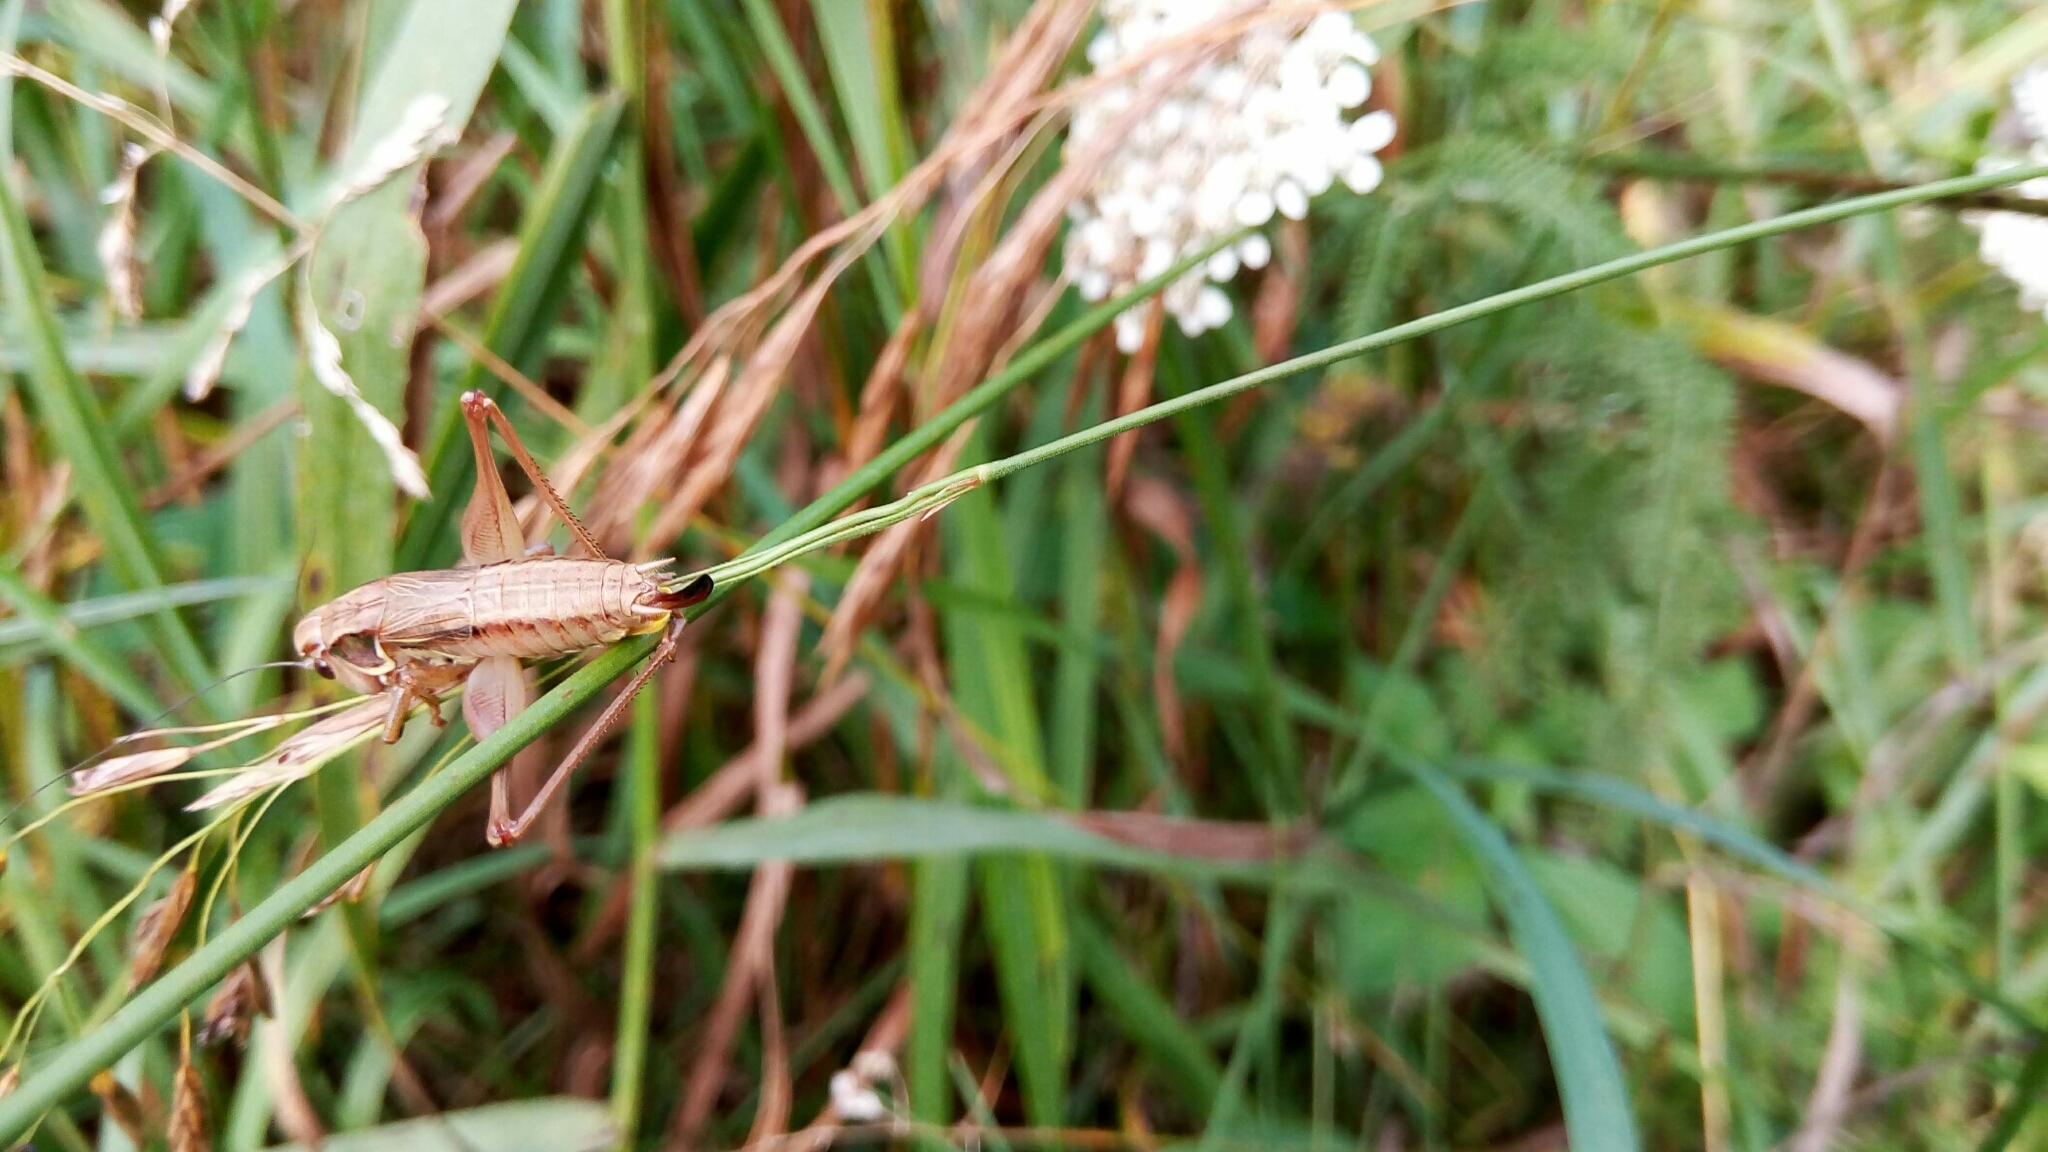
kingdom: Animalia
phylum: Arthropoda
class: Insecta
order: Orthoptera
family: Tettigoniidae
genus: Roeseliana
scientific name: Roeseliana roeselii
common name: Roesel's bush cricket
